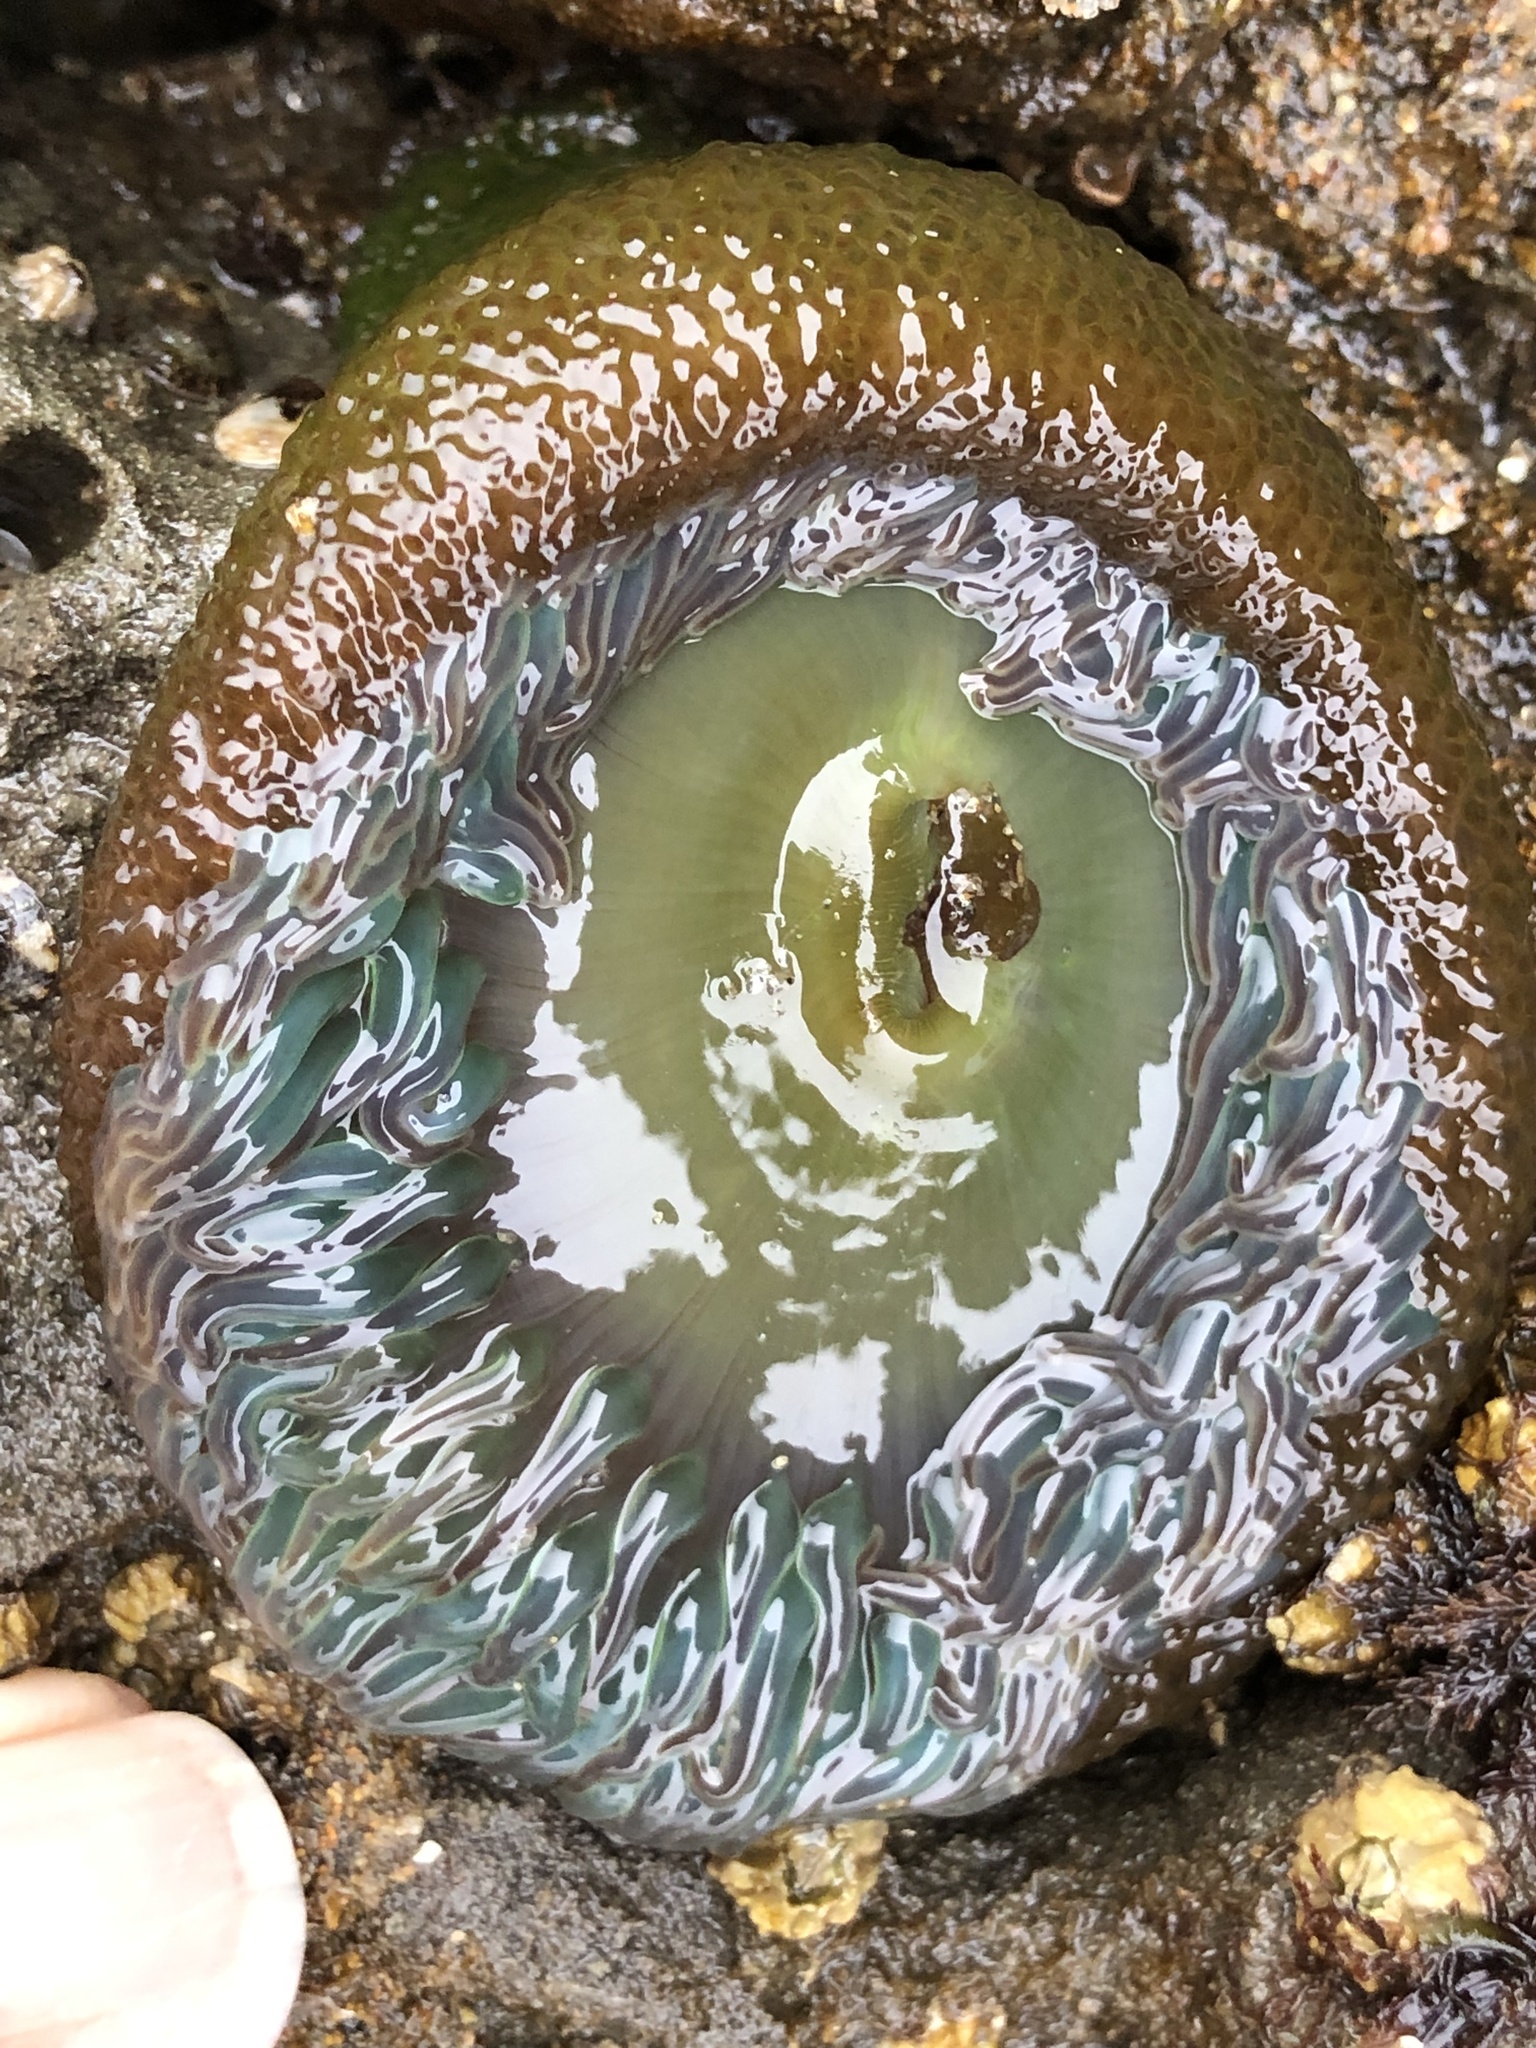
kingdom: Animalia
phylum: Cnidaria
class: Anthozoa
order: Actiniaria
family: Actiniidae
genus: Anthopleura
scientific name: Anthopleura xanthogrammica
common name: Giant green anemone
